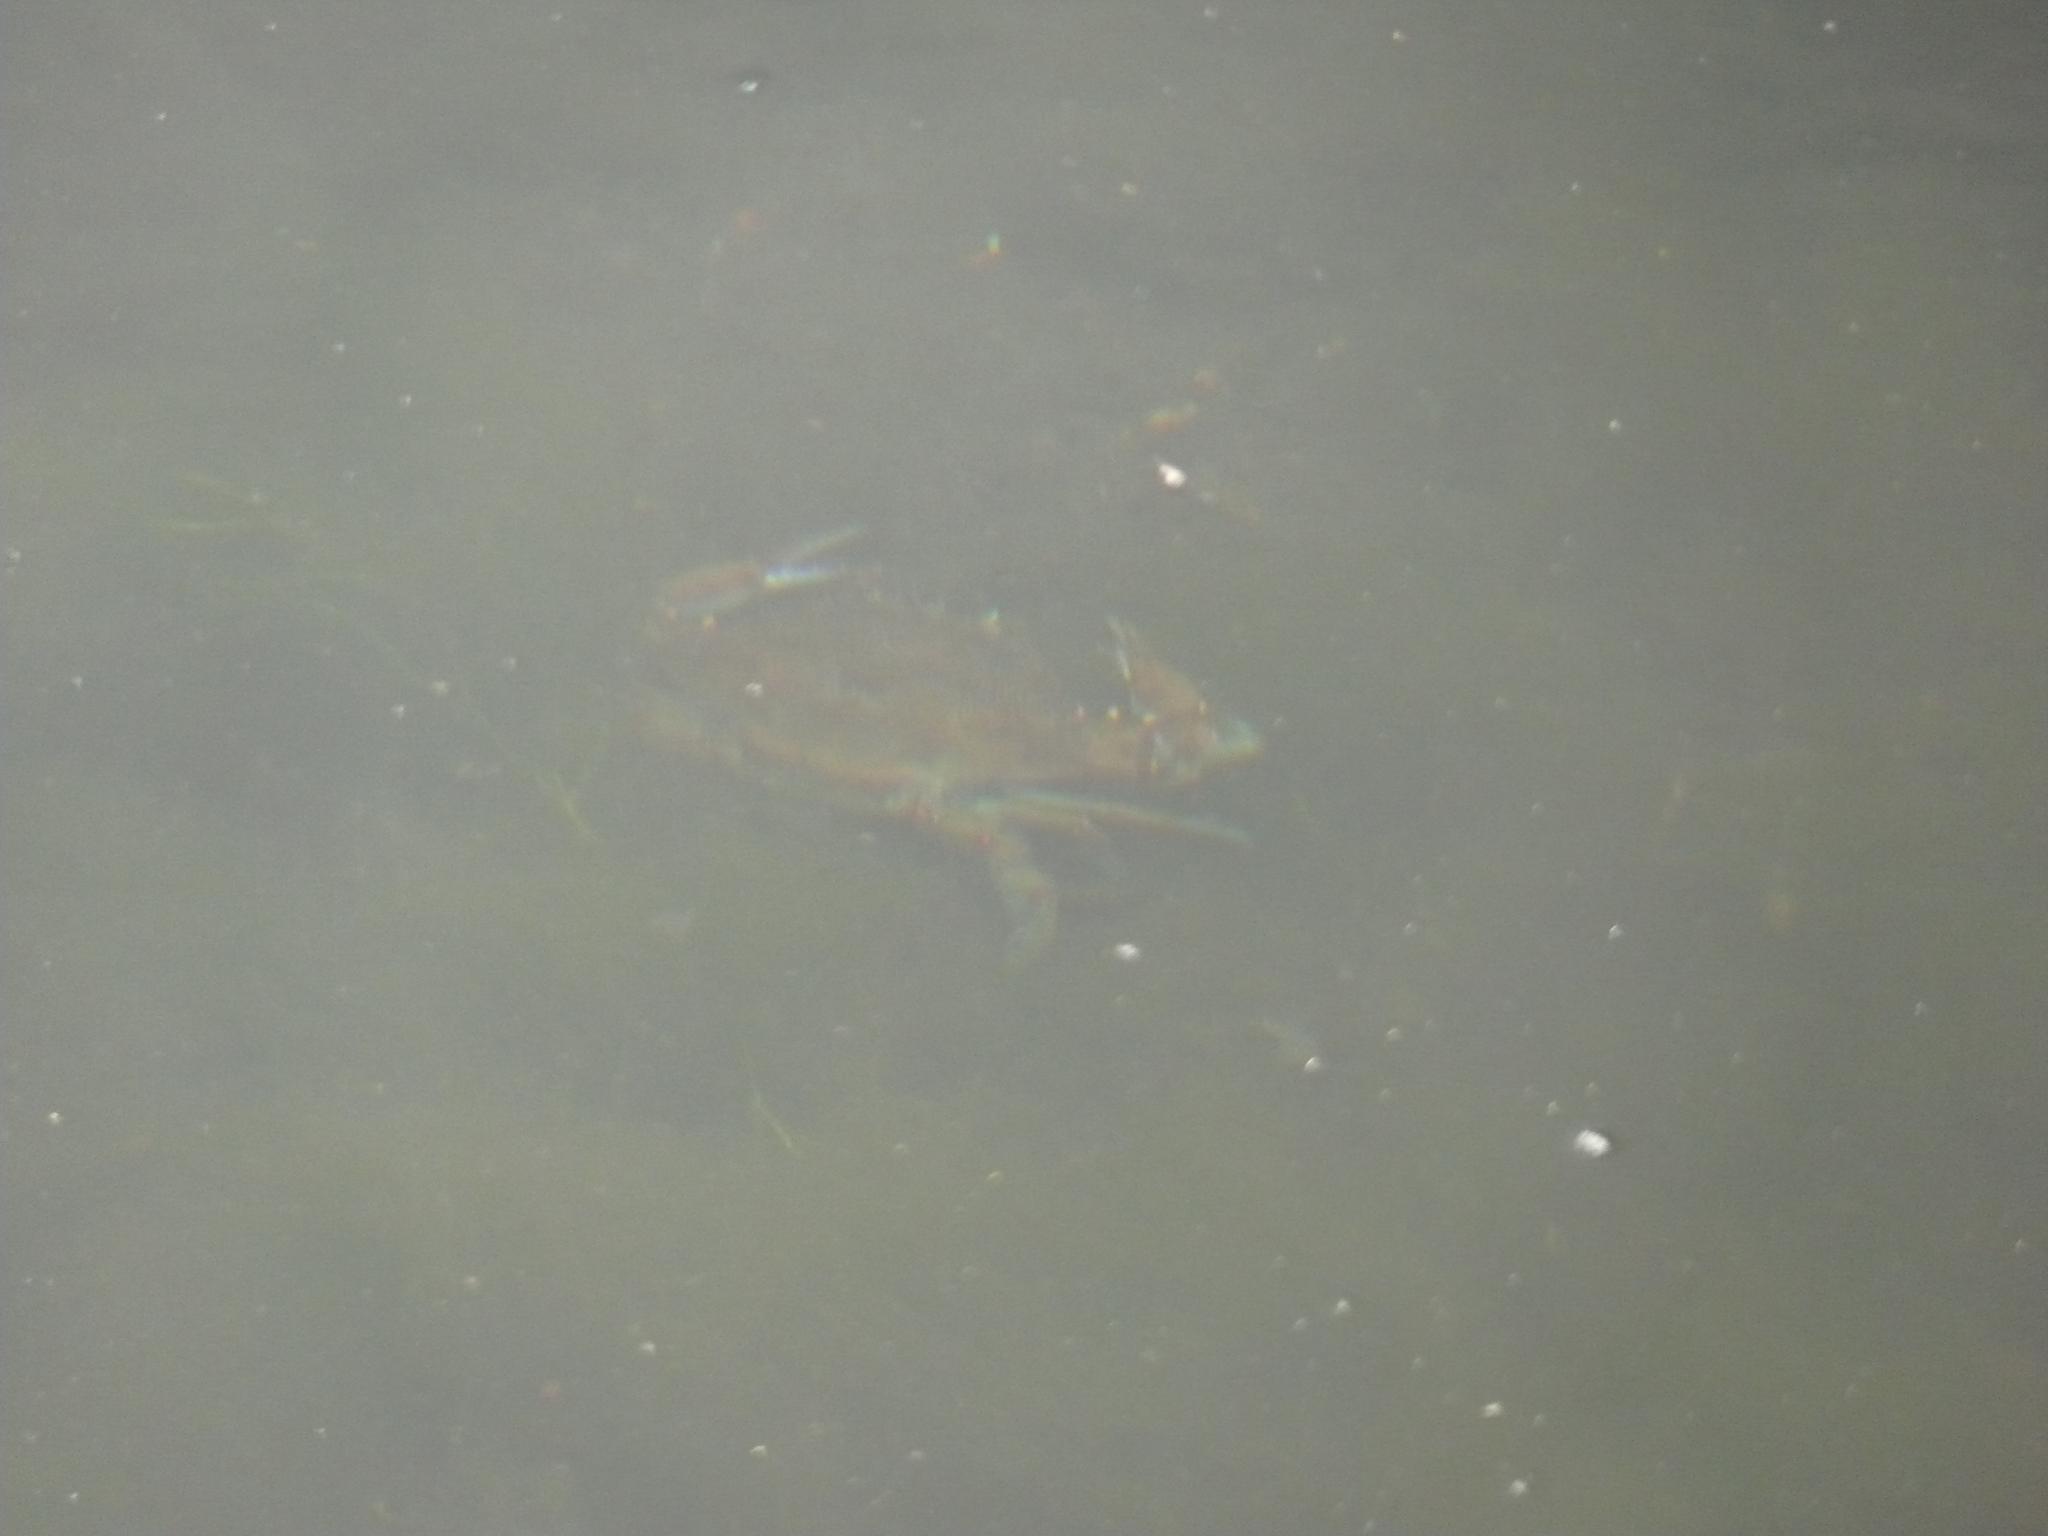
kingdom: Animalia
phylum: Arthropoda
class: Malacostraca
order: Decapoda
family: Portunidae
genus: Callinectes
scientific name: Callinectes sapidus
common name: Blue crab
